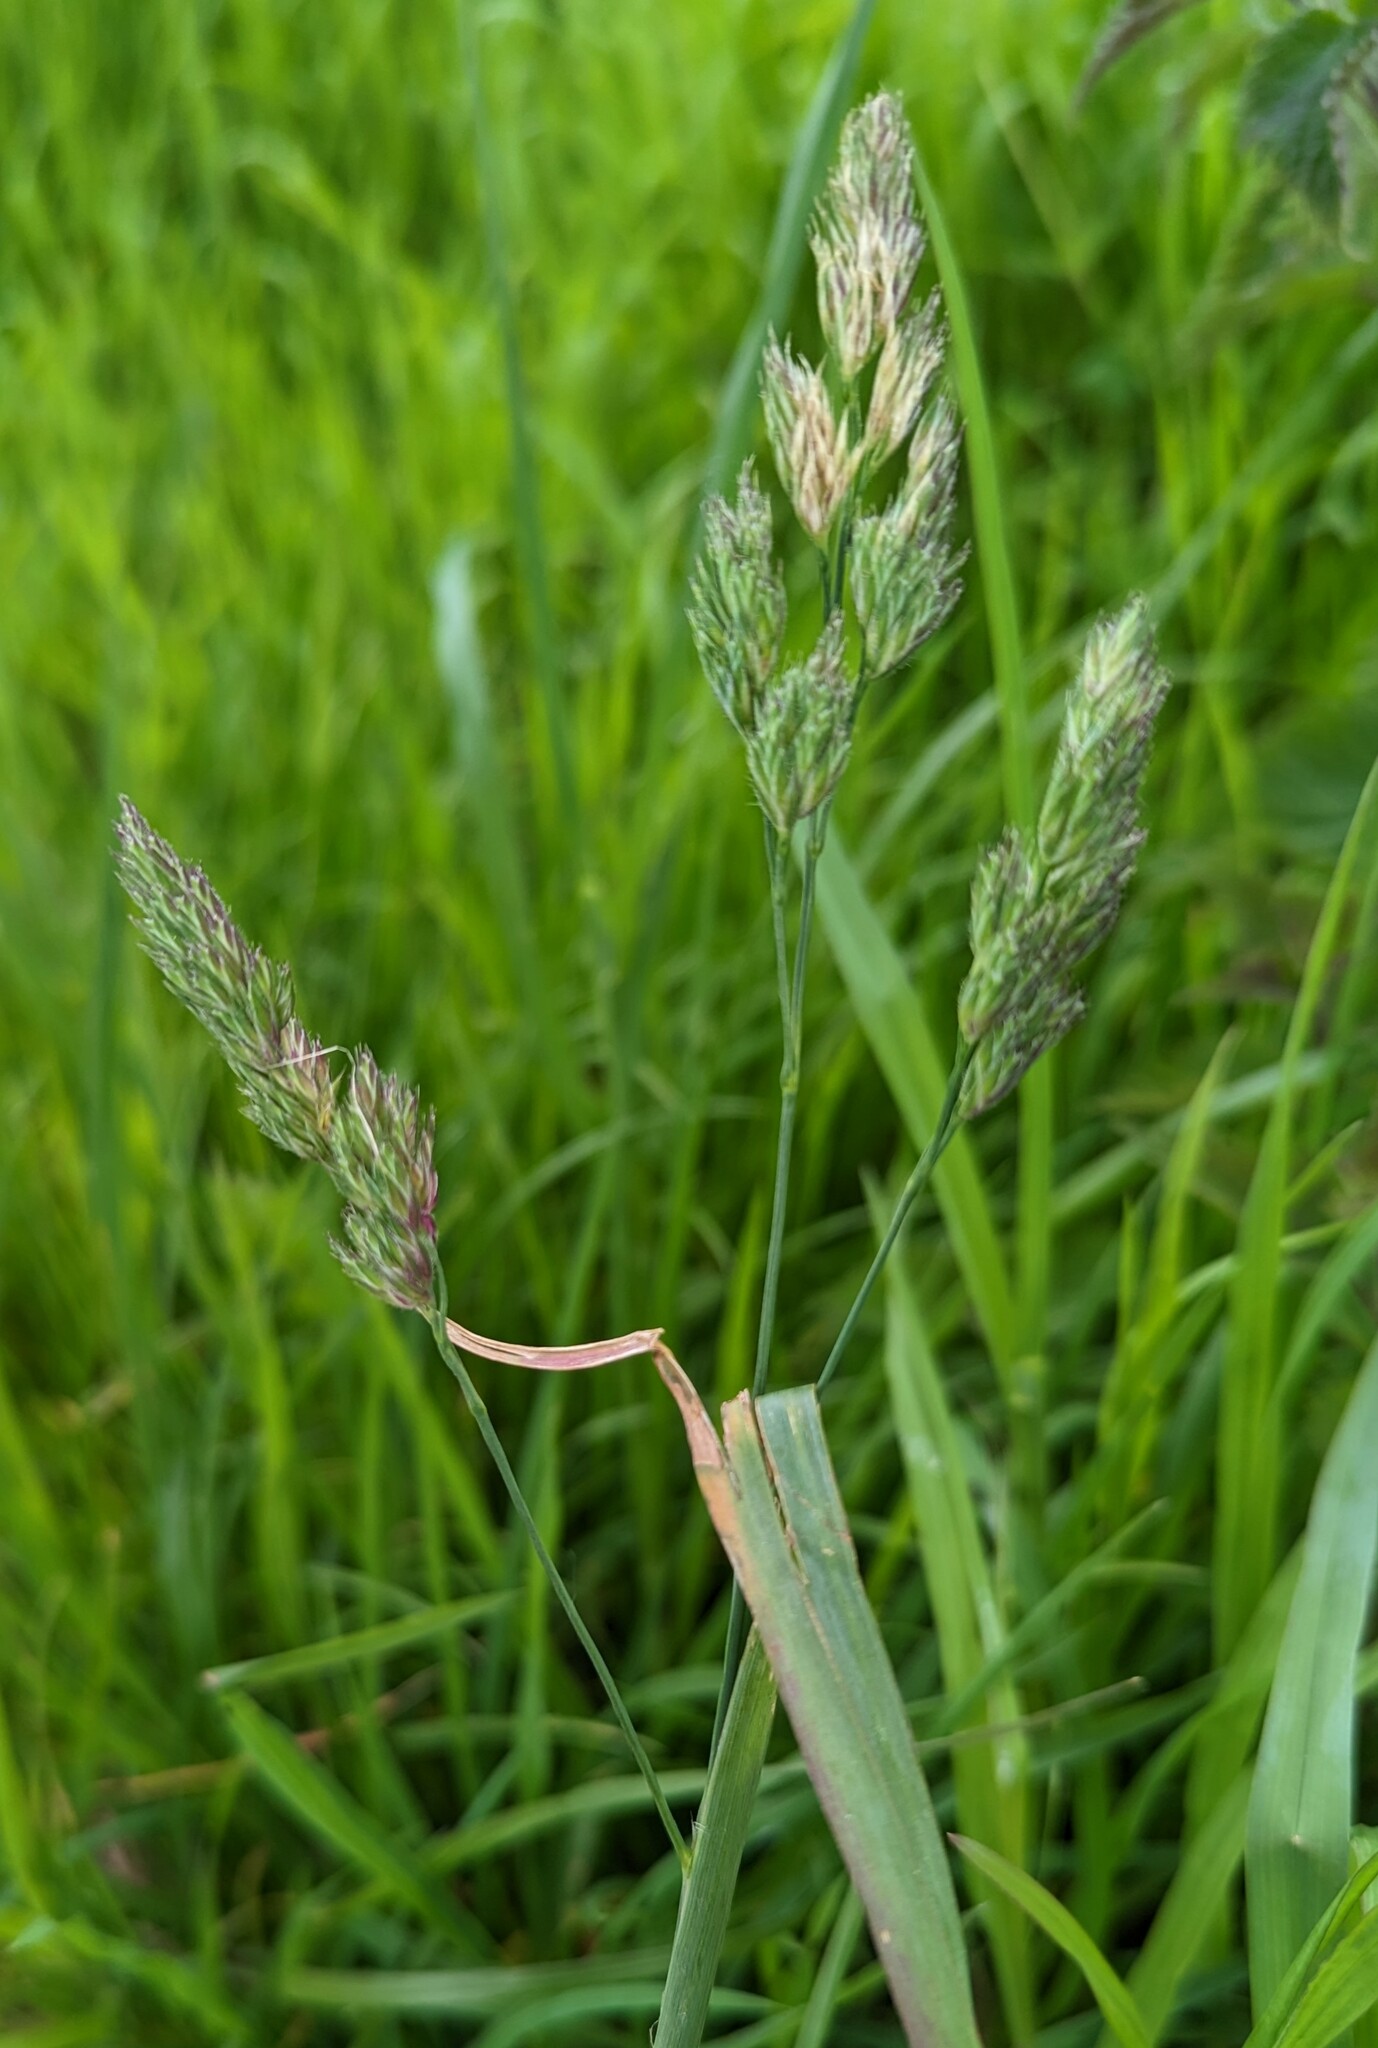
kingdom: Plantae
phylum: Tracheophyta
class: Liliopsida
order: Poales
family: Poaceae
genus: Dactylis
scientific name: Dactylis glomerata
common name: Orchardgrass
